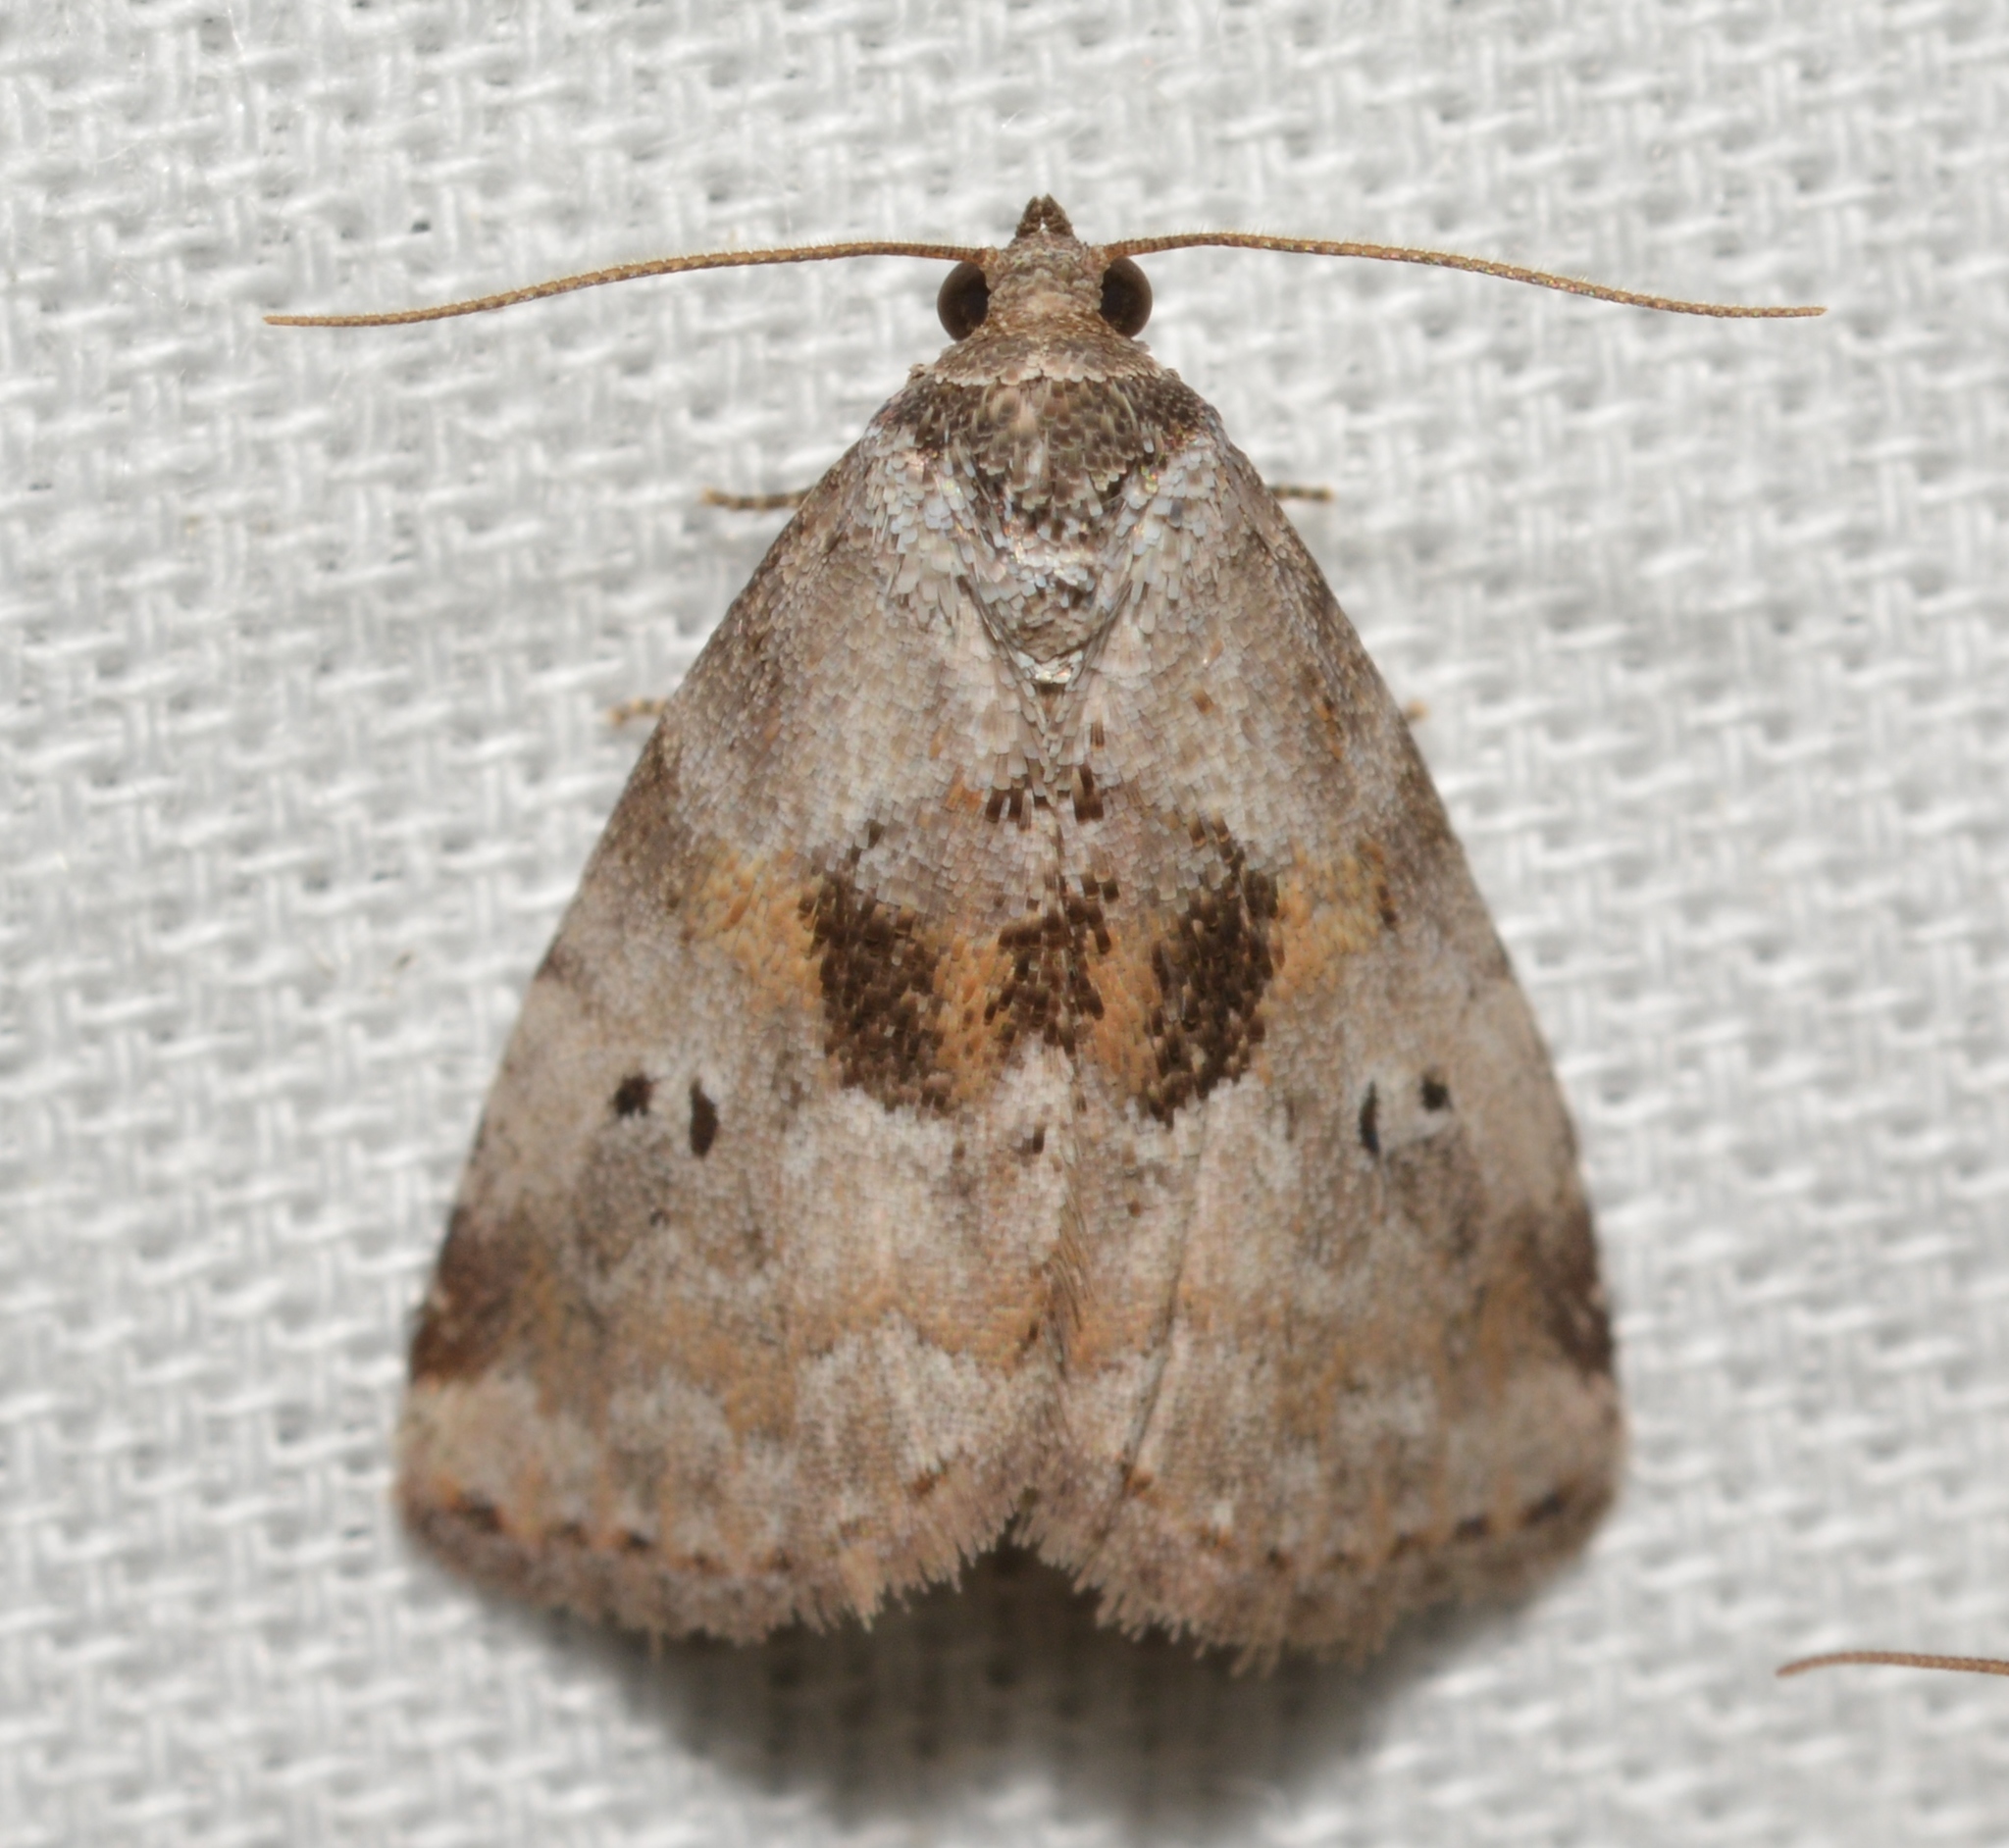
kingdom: Animalia
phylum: Arthropoda
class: Insecta
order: Lepidoptera
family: Erebidae
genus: Hyperstrotia
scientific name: Hyperstrotia secta
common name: Black-patched graylet
